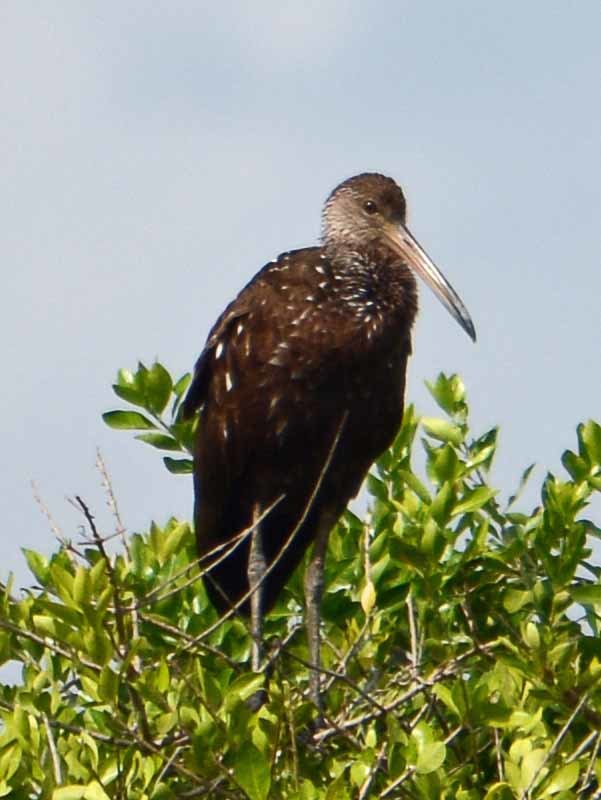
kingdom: Animalia
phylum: Chordata
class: Aves
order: Gruiformes
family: Aramidae
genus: Aramus
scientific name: Aramus guarauna
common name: Limpkin
